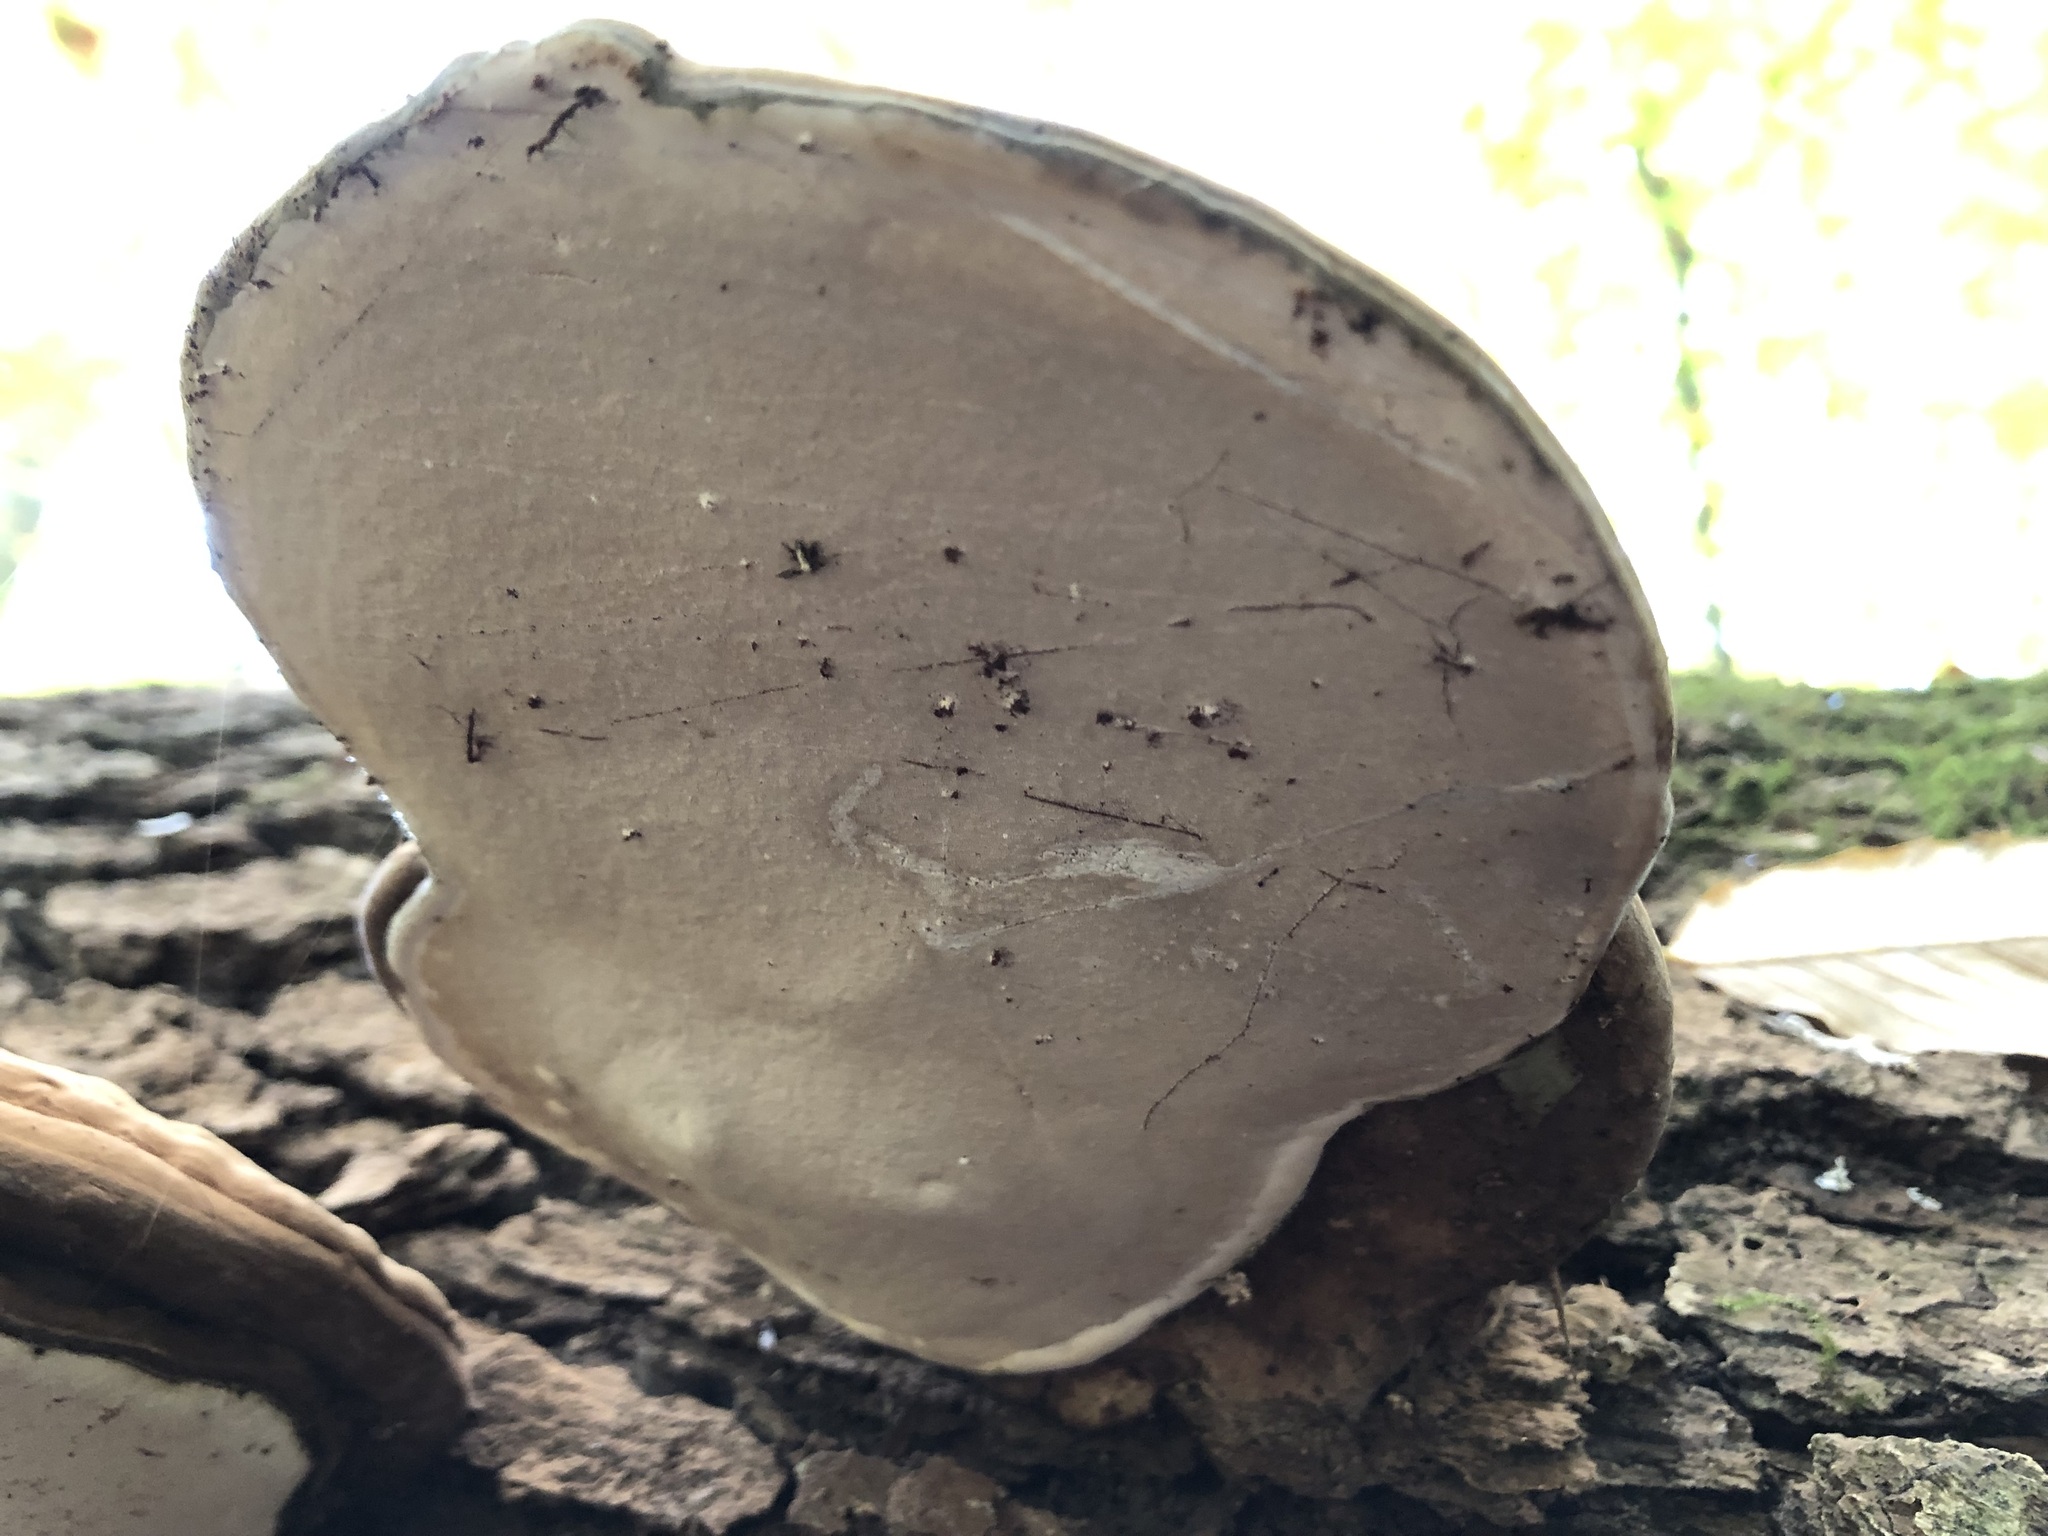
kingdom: Fungi
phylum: Basidiomycota
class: Agaricomycetes
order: Polyporales
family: Polyporaceae
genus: Ganoderma
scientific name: Ganoderma applanatum
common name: Artist's bracket
